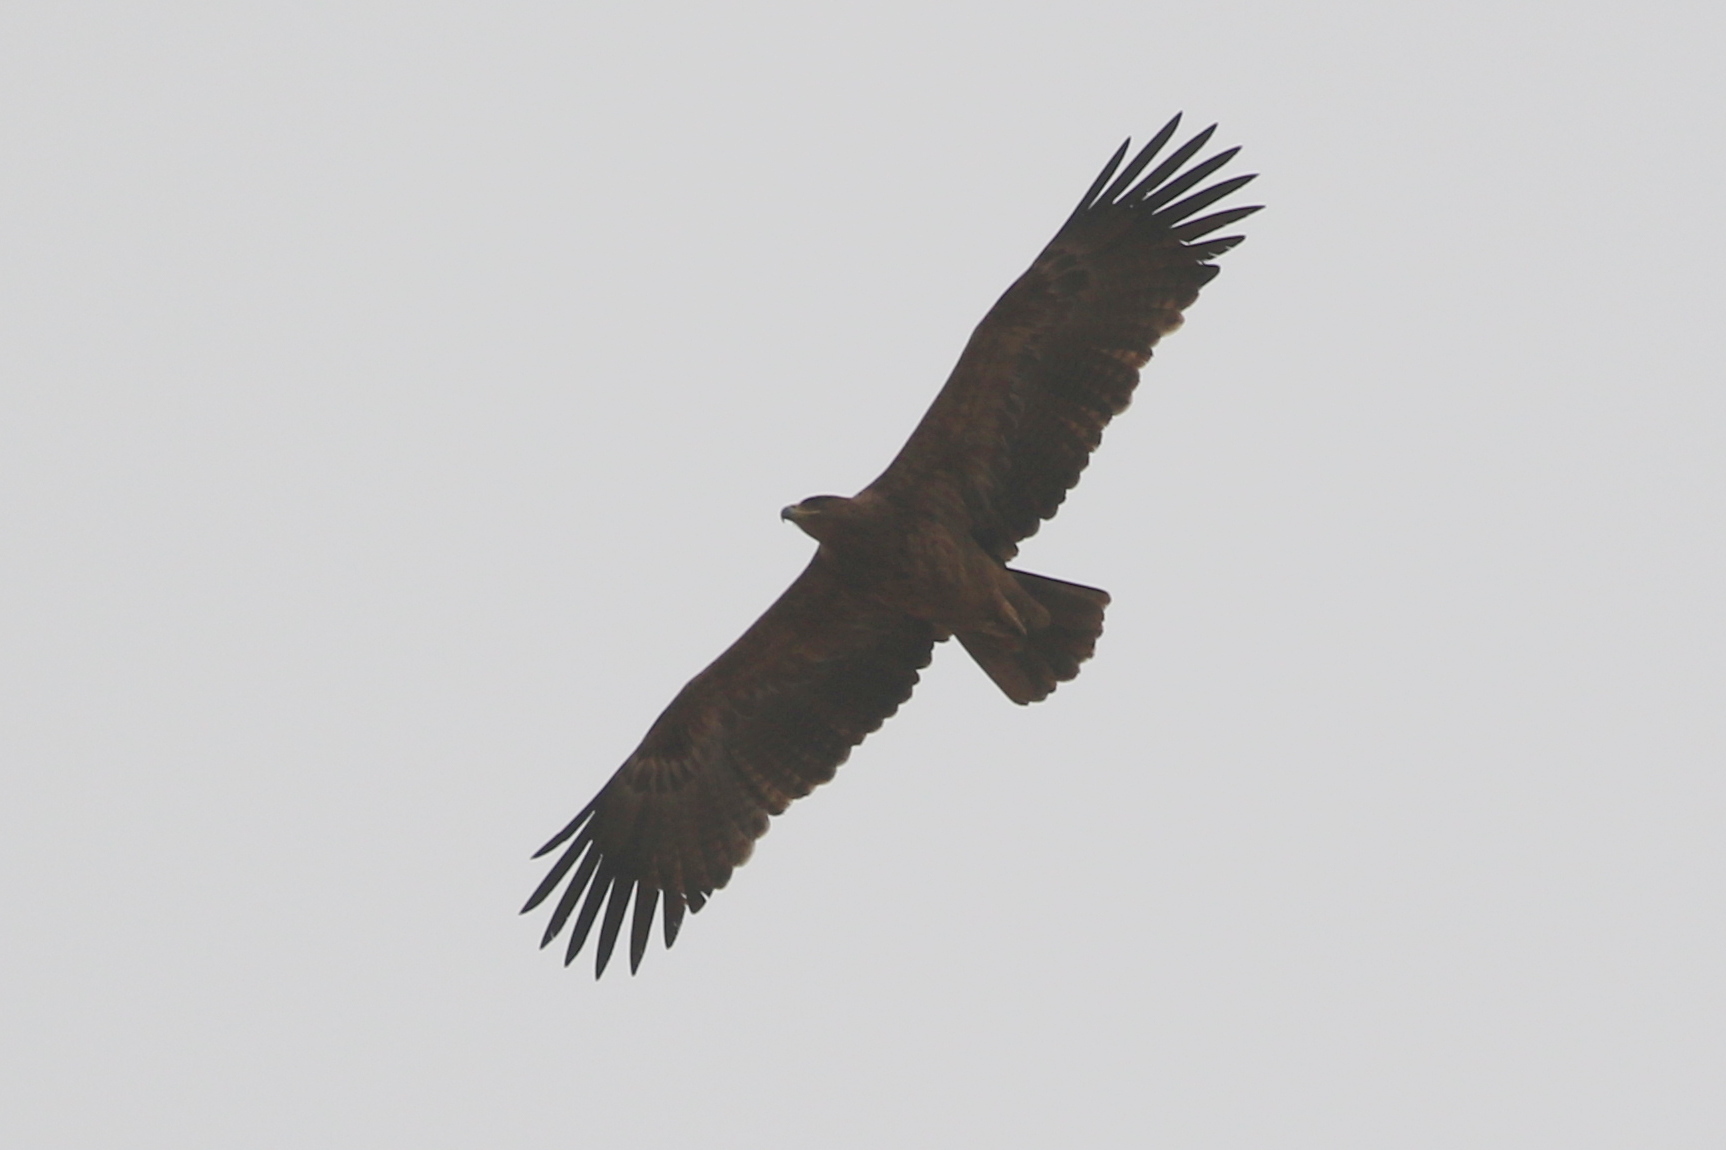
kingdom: Animalia
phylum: Chordata
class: Aves
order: Accipitriformes
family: Accipitridae
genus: Aquila
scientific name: Aquila rapax
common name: Tawny eagle
